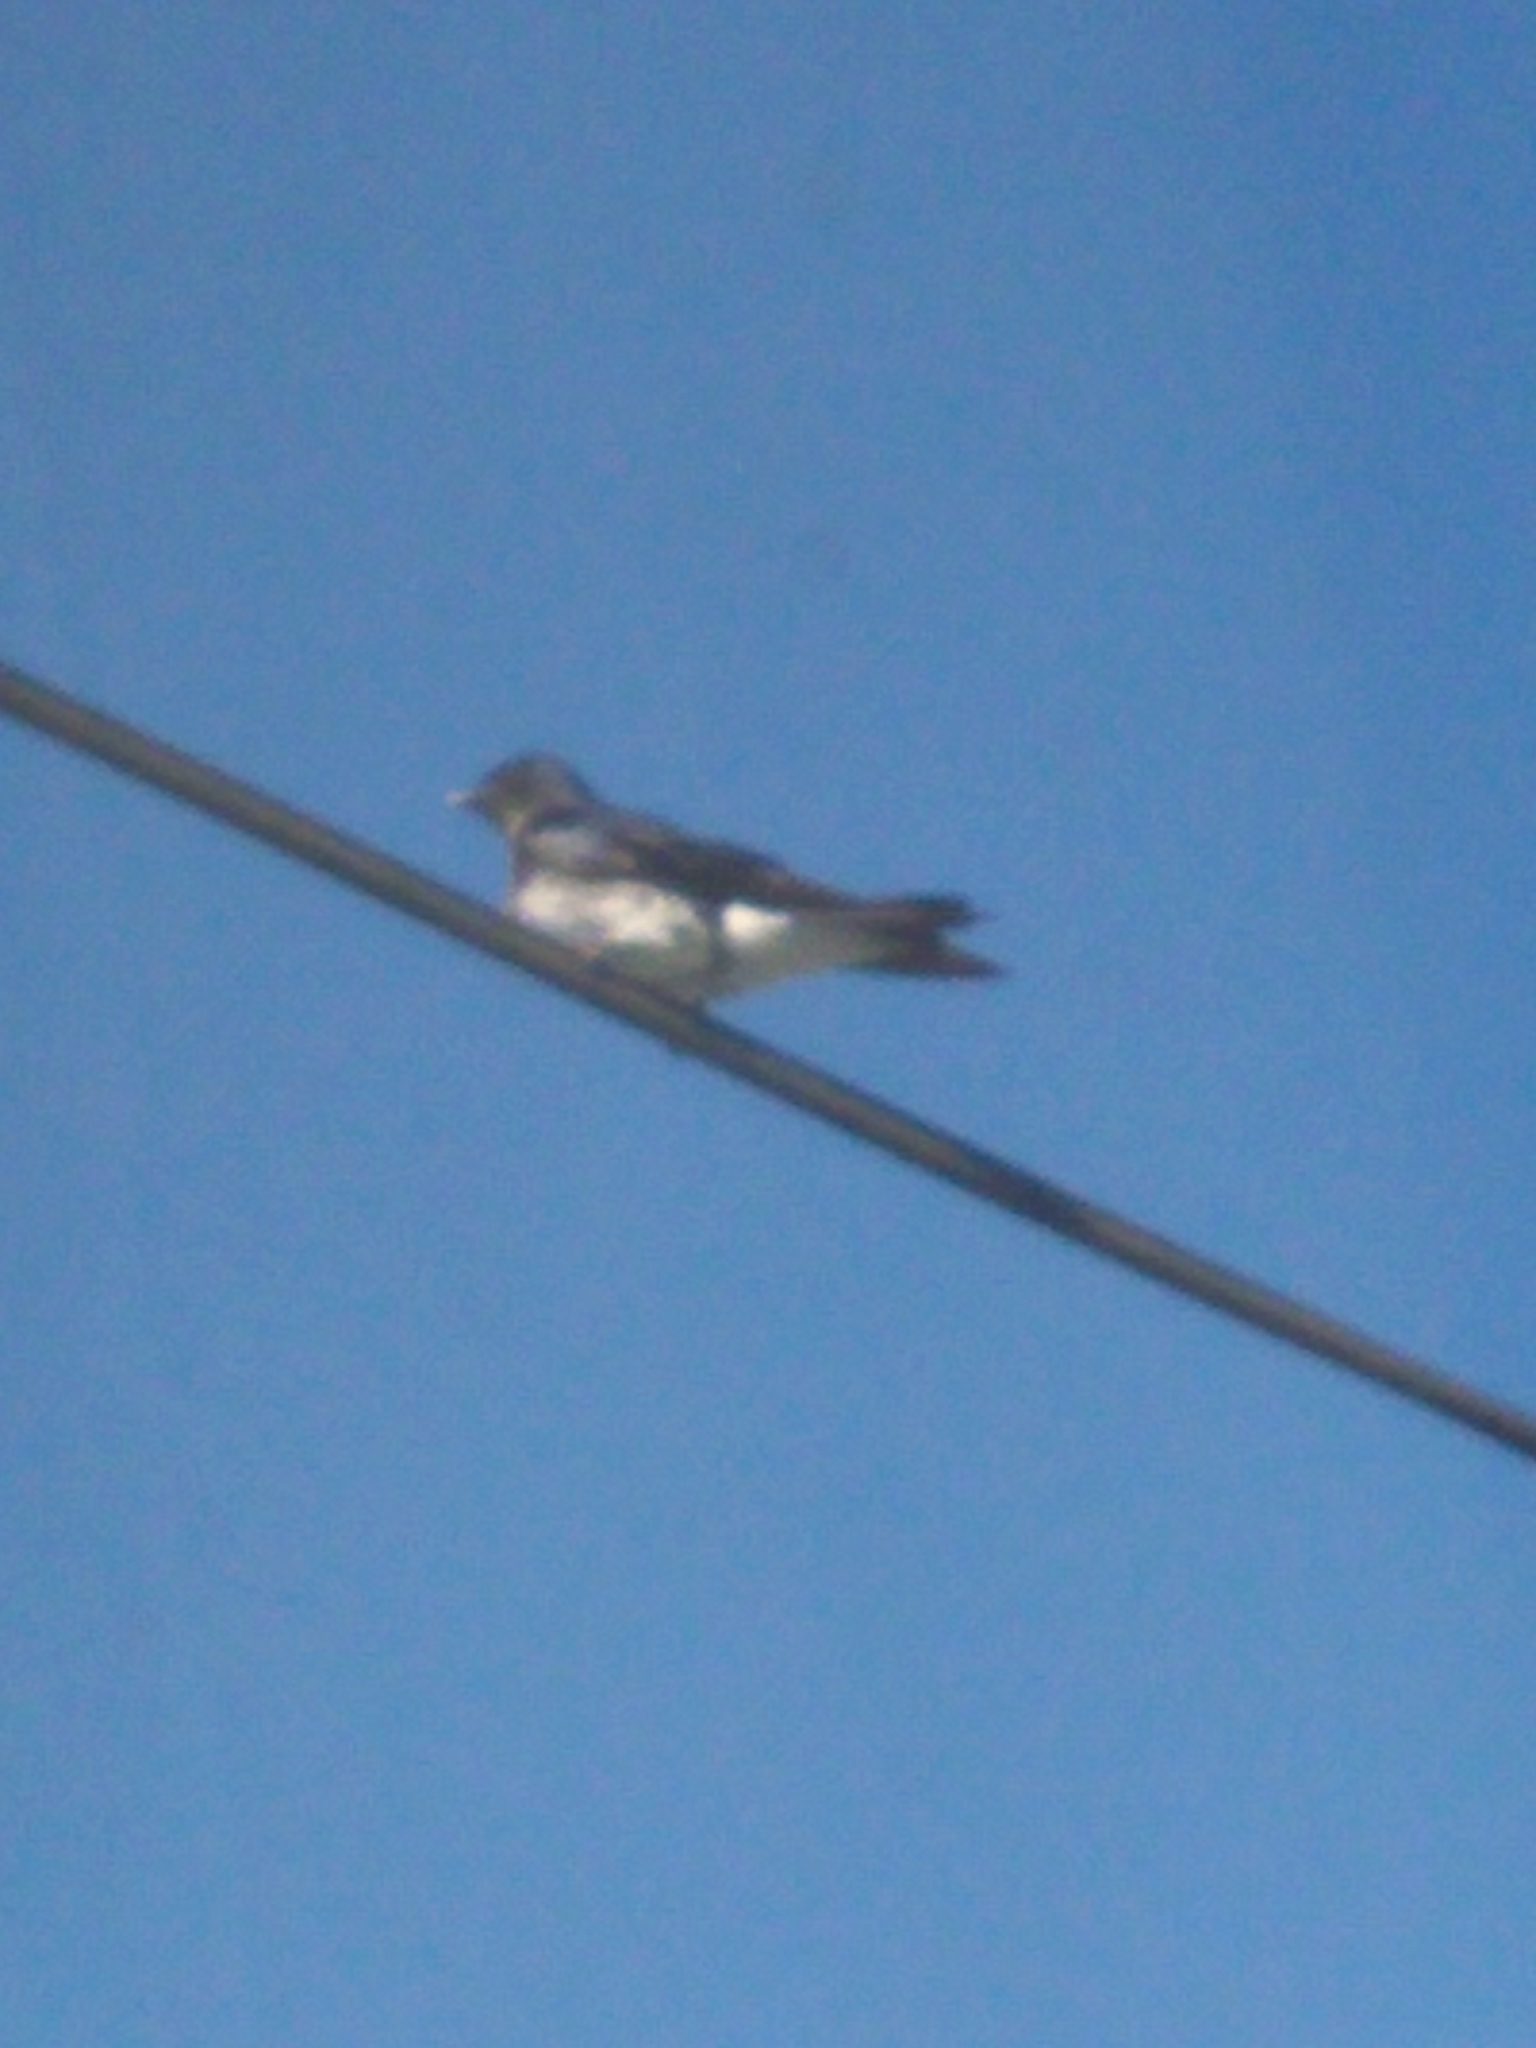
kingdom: Animalia
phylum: Chordata
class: Aves
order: Passeriformes
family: Hirundinidae
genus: Progne
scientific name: Progne chalybea
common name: Grey-breasted martin
